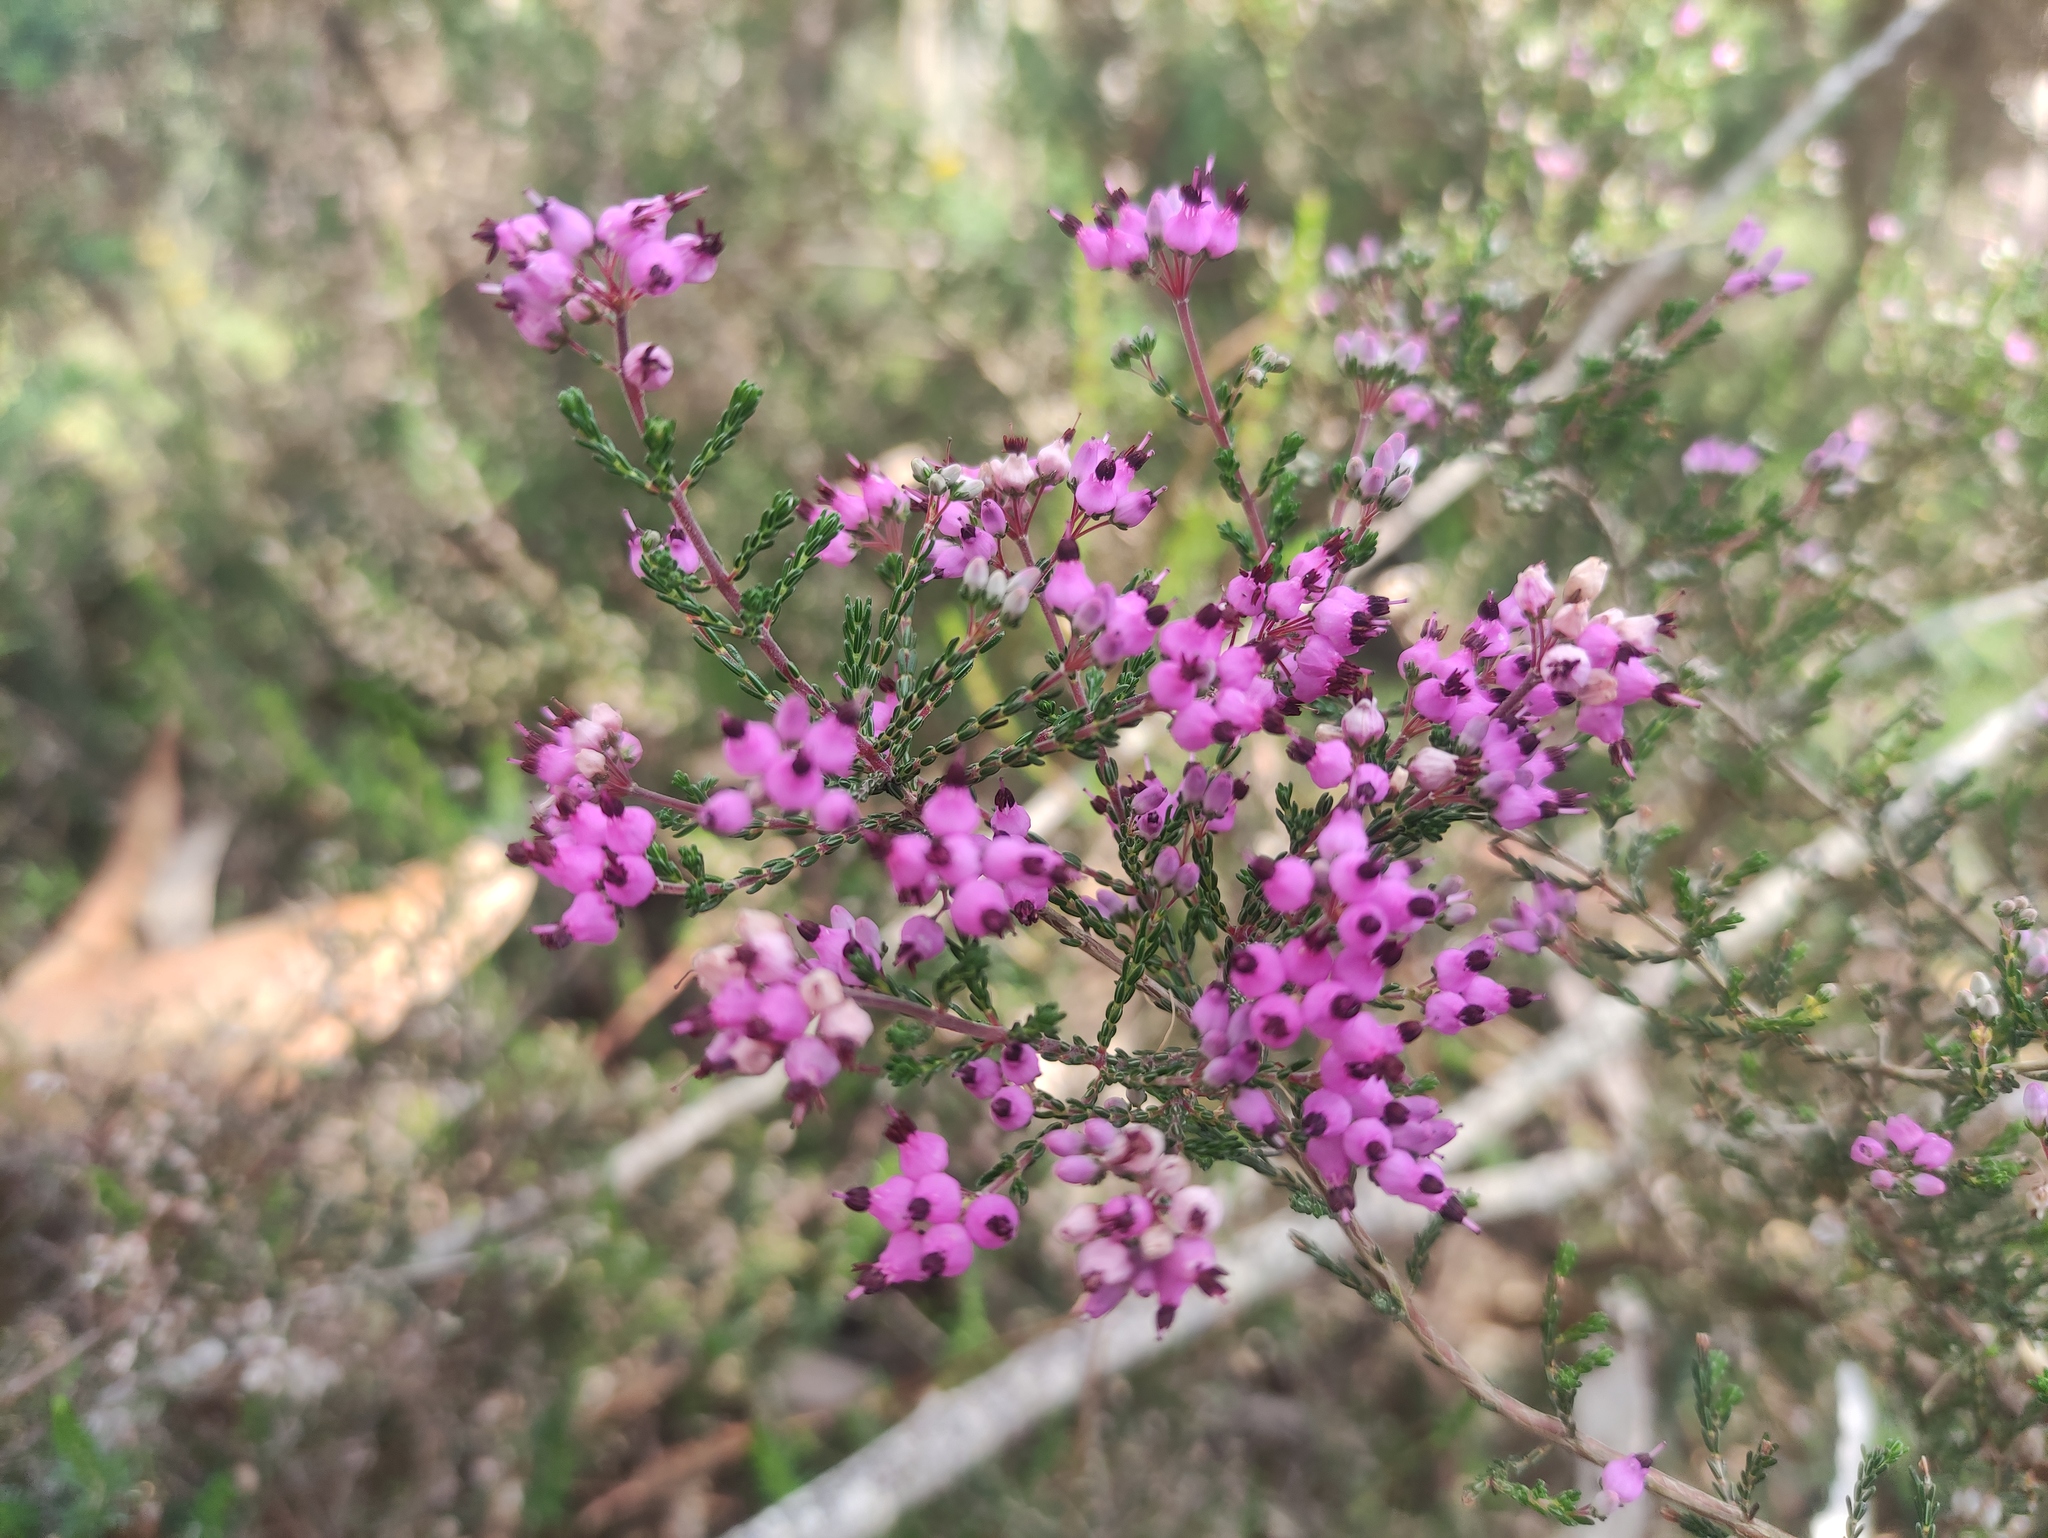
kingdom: Plantae
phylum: Tracheophyta
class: Magnoliopsida
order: Ericales
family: Ericaceae
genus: Erica
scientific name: Erica umbellata
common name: Dwarf spanish heath
